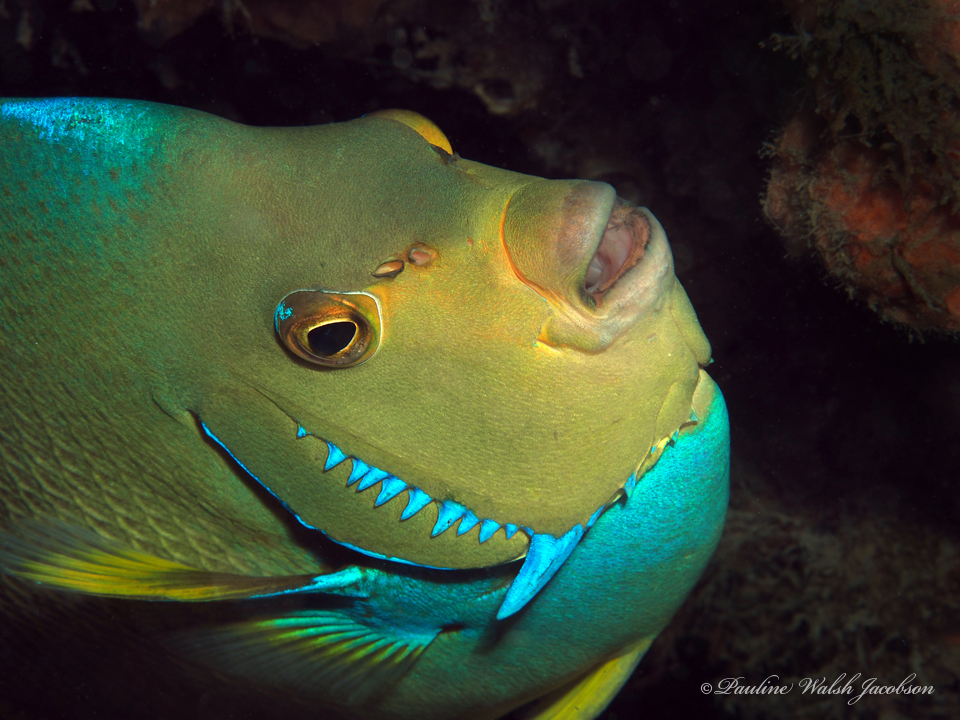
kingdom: Animalia
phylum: Chordata
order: Perciformes
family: Pomacanthidae
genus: Holacanthus
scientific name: Holacanthus bermudensis
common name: Blue angelfish
